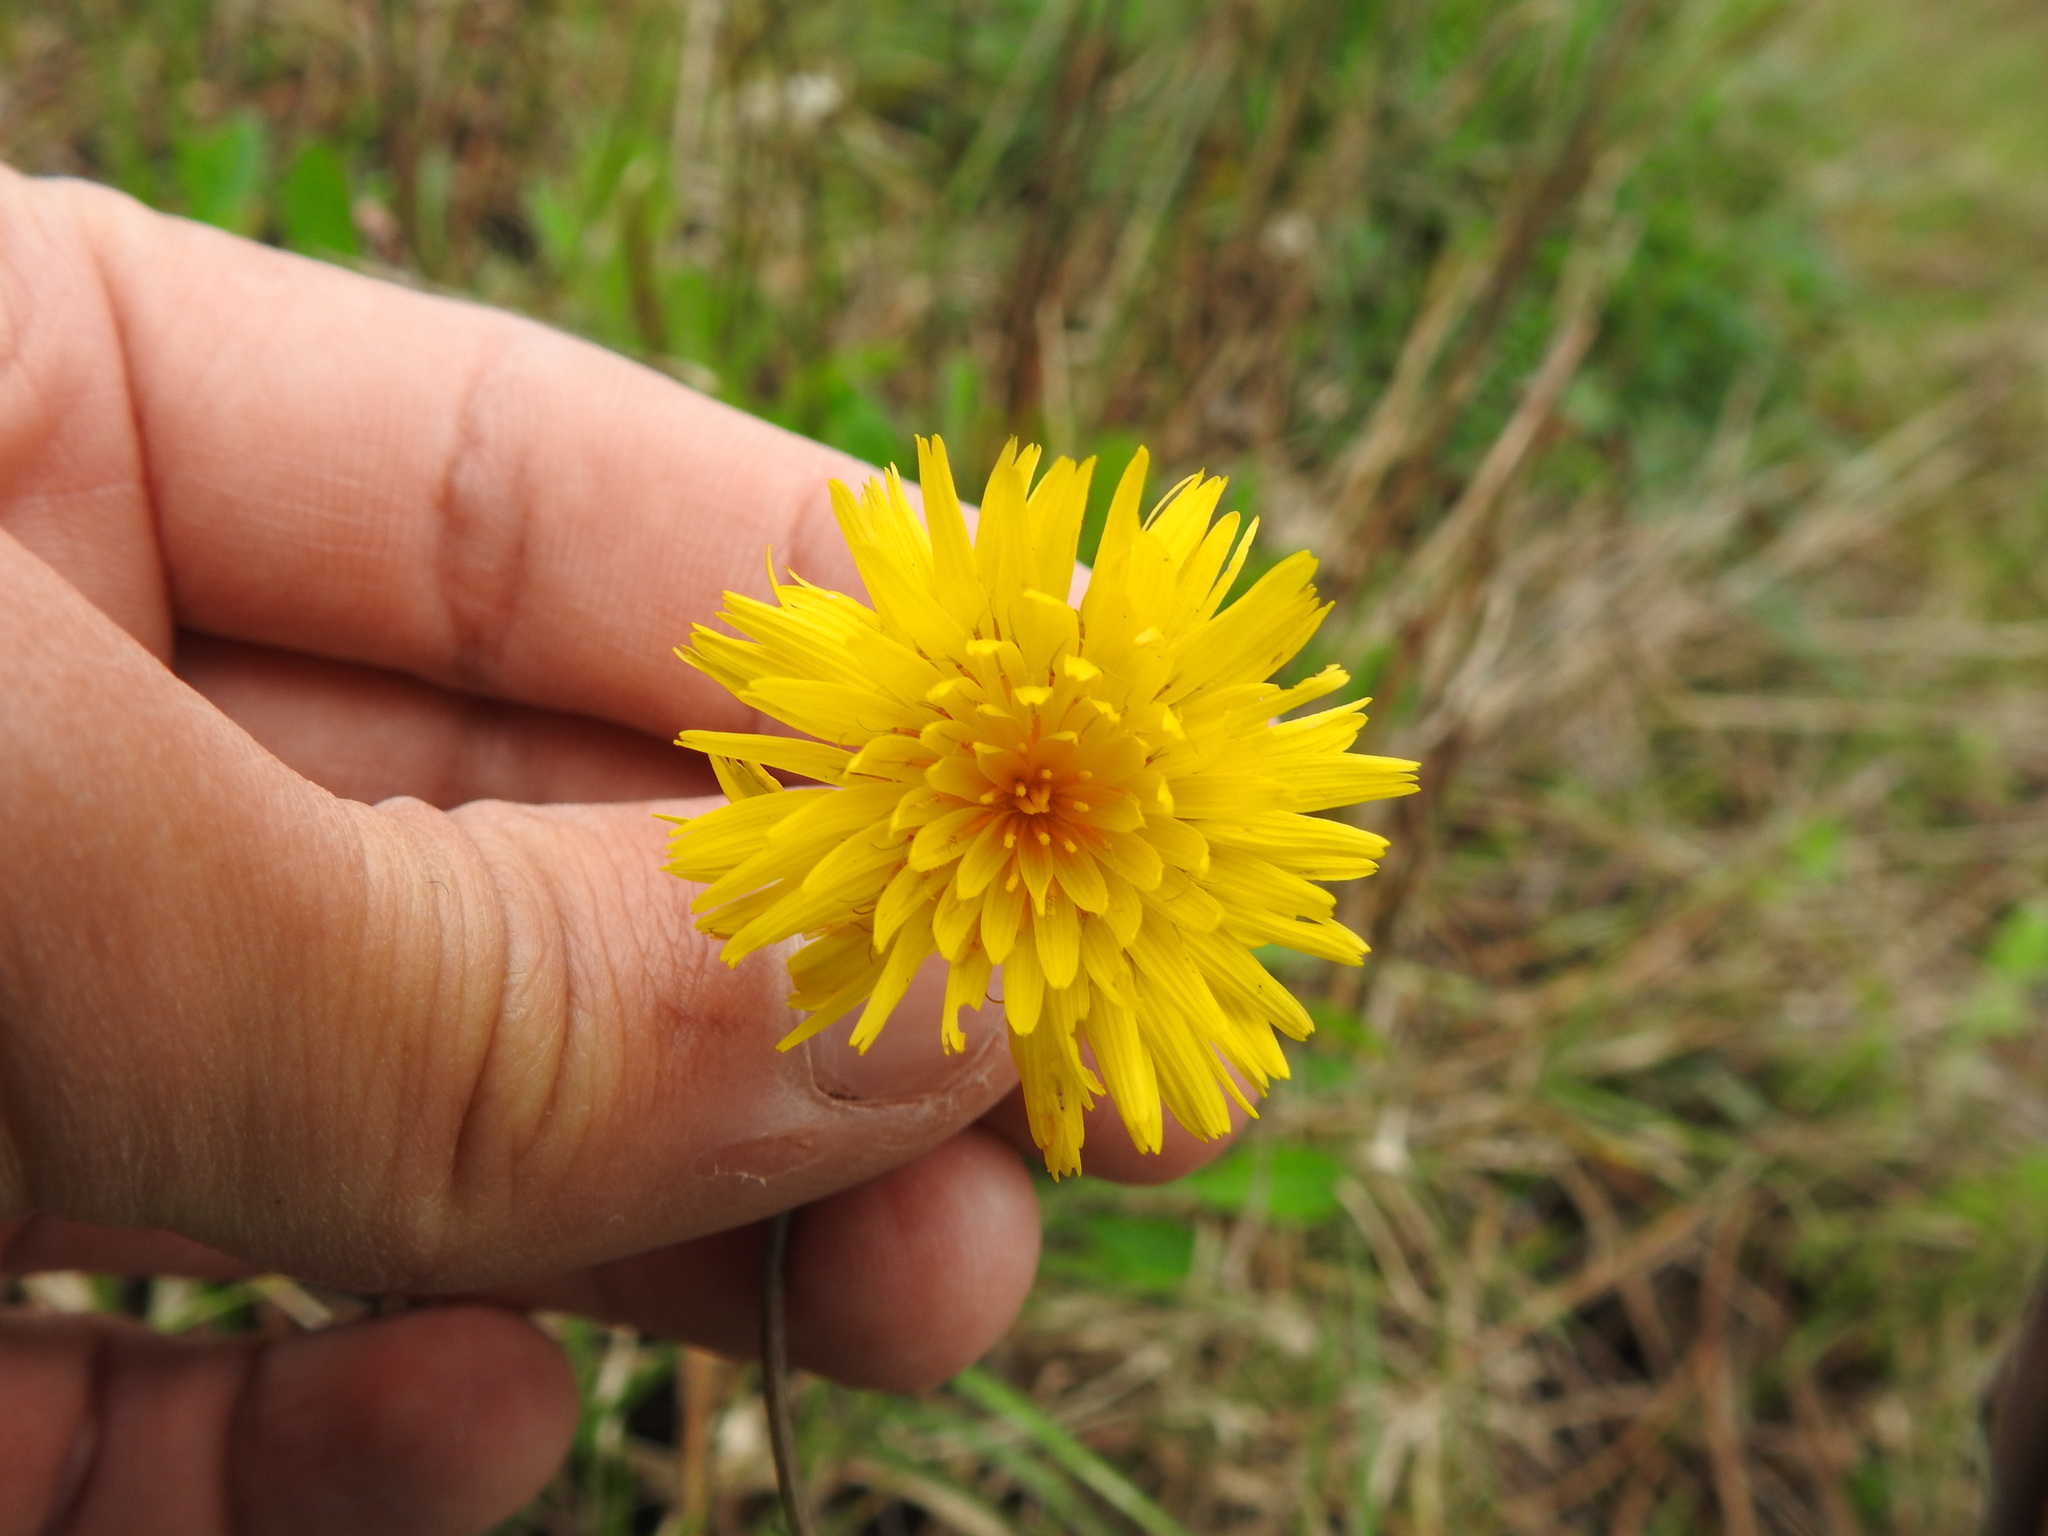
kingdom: Plantae
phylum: Tracheophyta
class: Magnoliopsida
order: Asterales
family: Asteraceae
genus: Reichardia
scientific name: Reichardia picroides
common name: Common brighteyes
